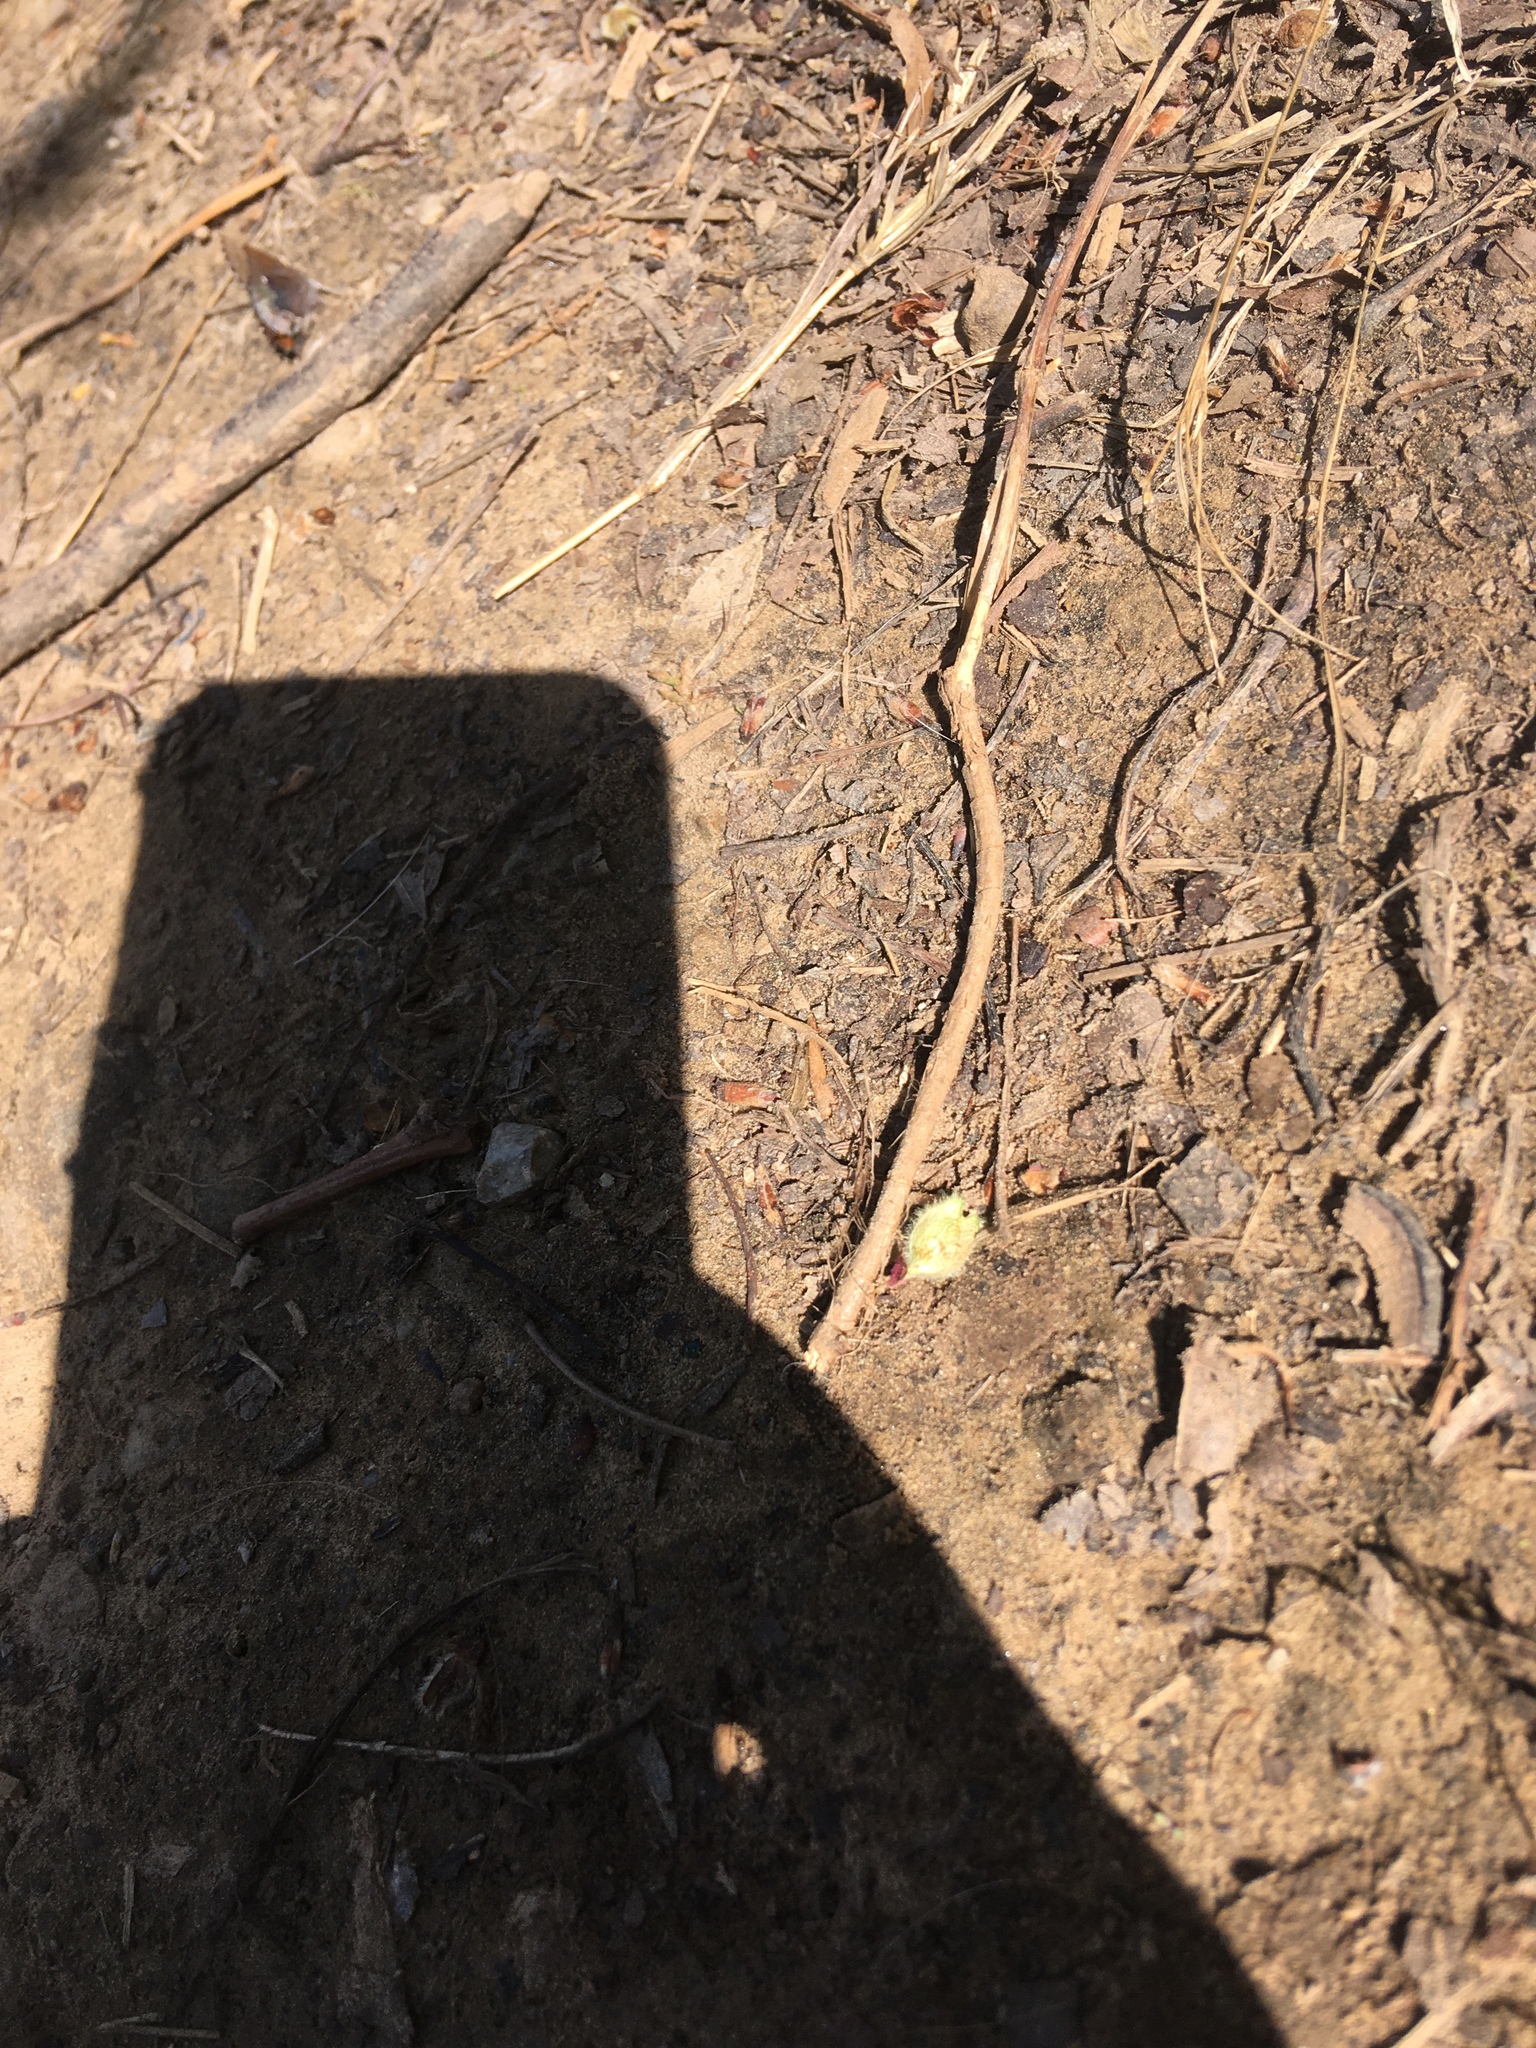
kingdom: Animalia
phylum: Arthropoda
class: Insecta
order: Lepidoptera
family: Lycaenidae
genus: Incisalia
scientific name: Incisalia henrici
